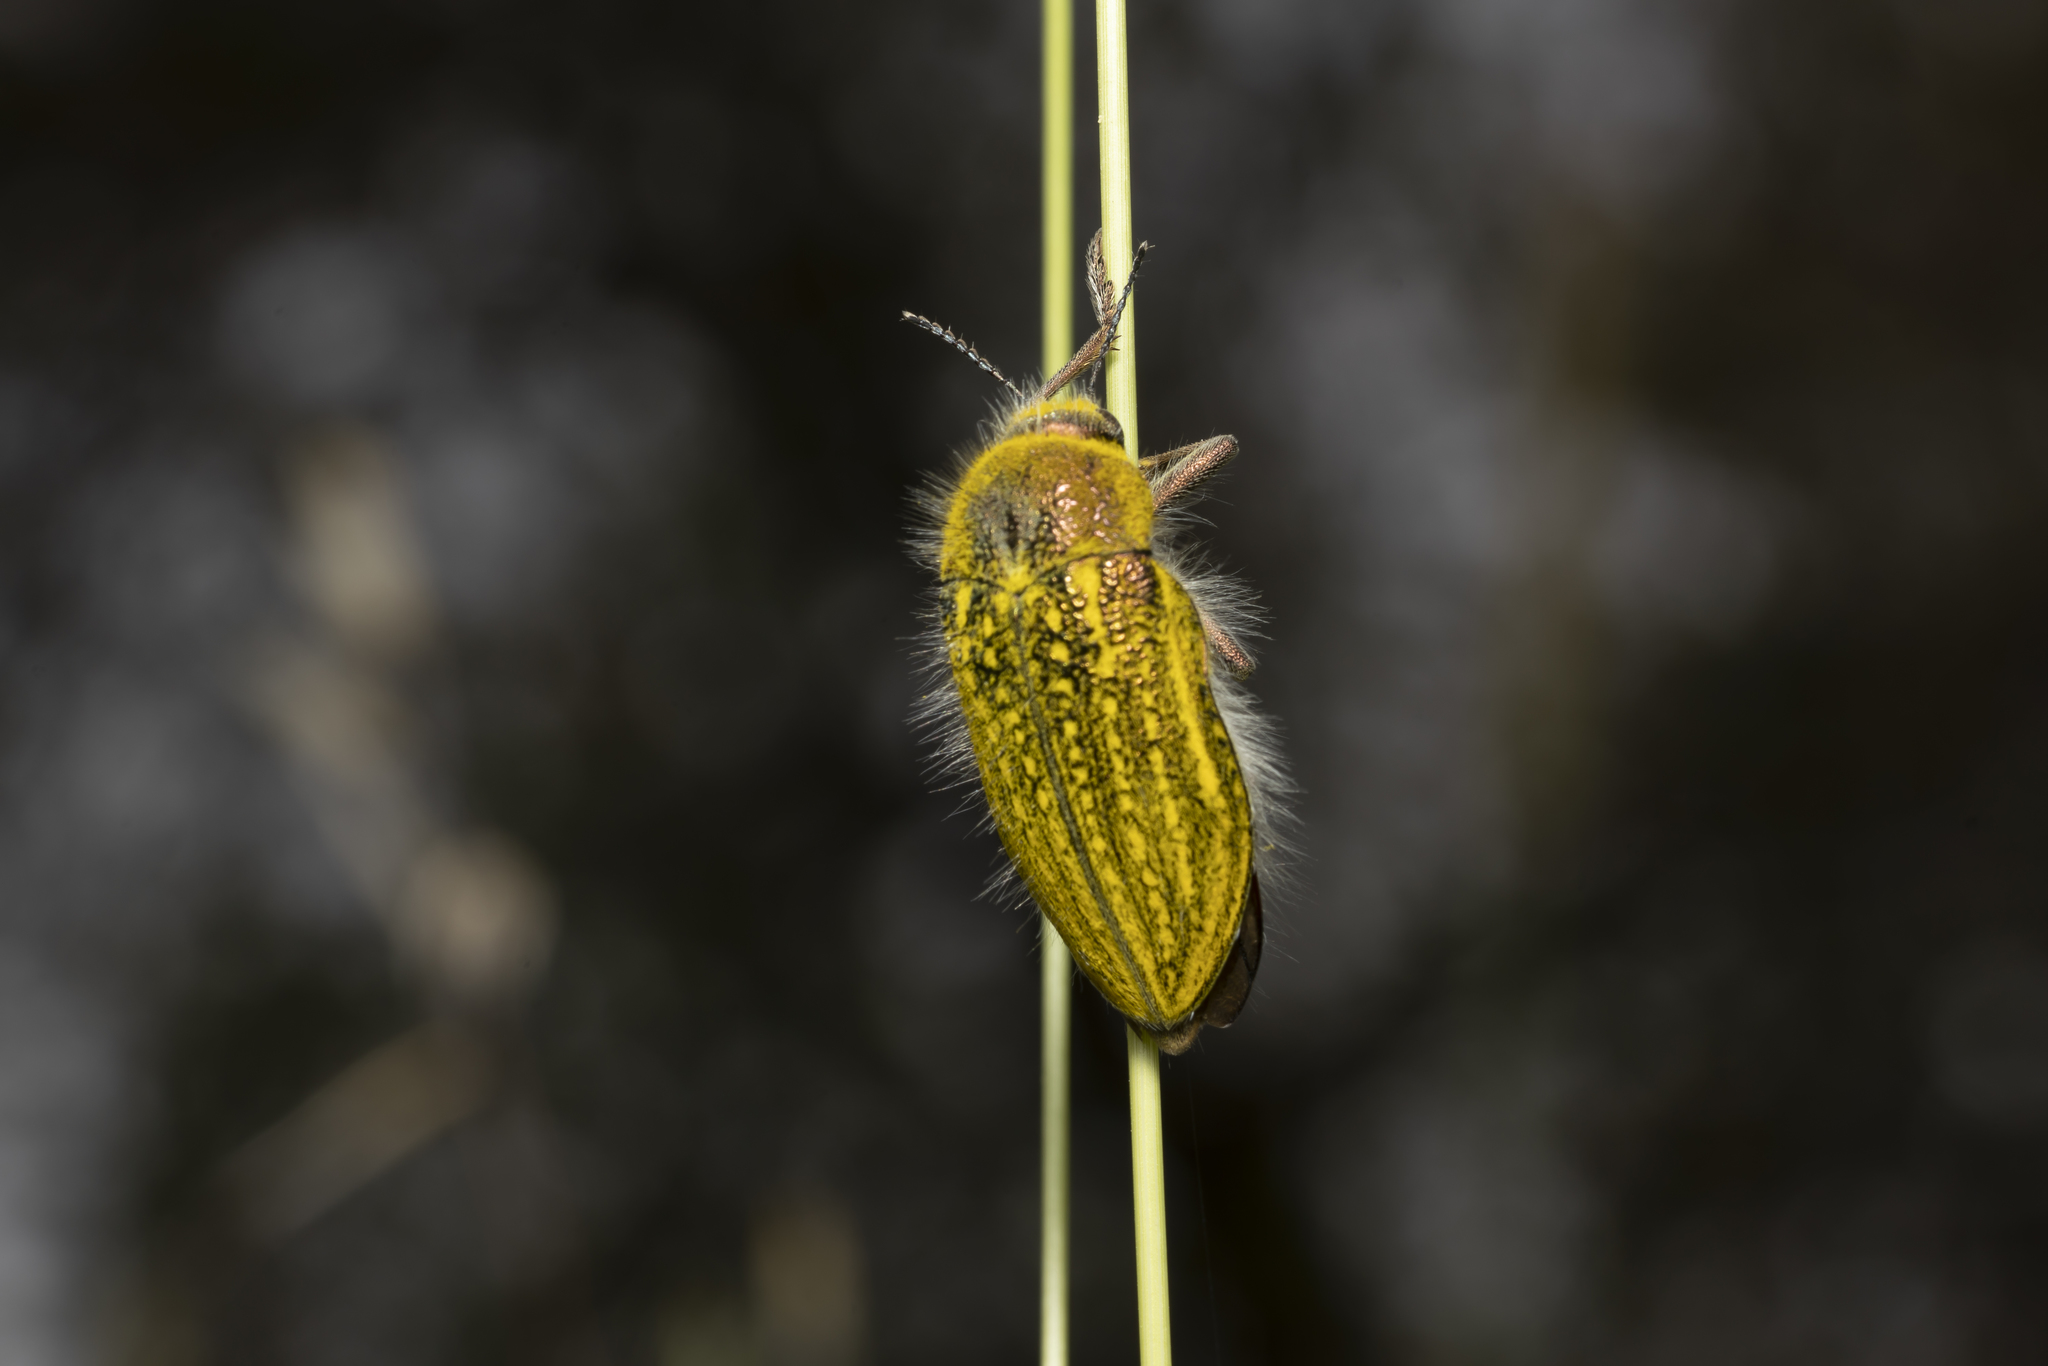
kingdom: Animalia
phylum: Arthropoda
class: Insecta
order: Coleoptera
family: Buprestidae
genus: Julodis
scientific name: Julodis ehrenbergii
